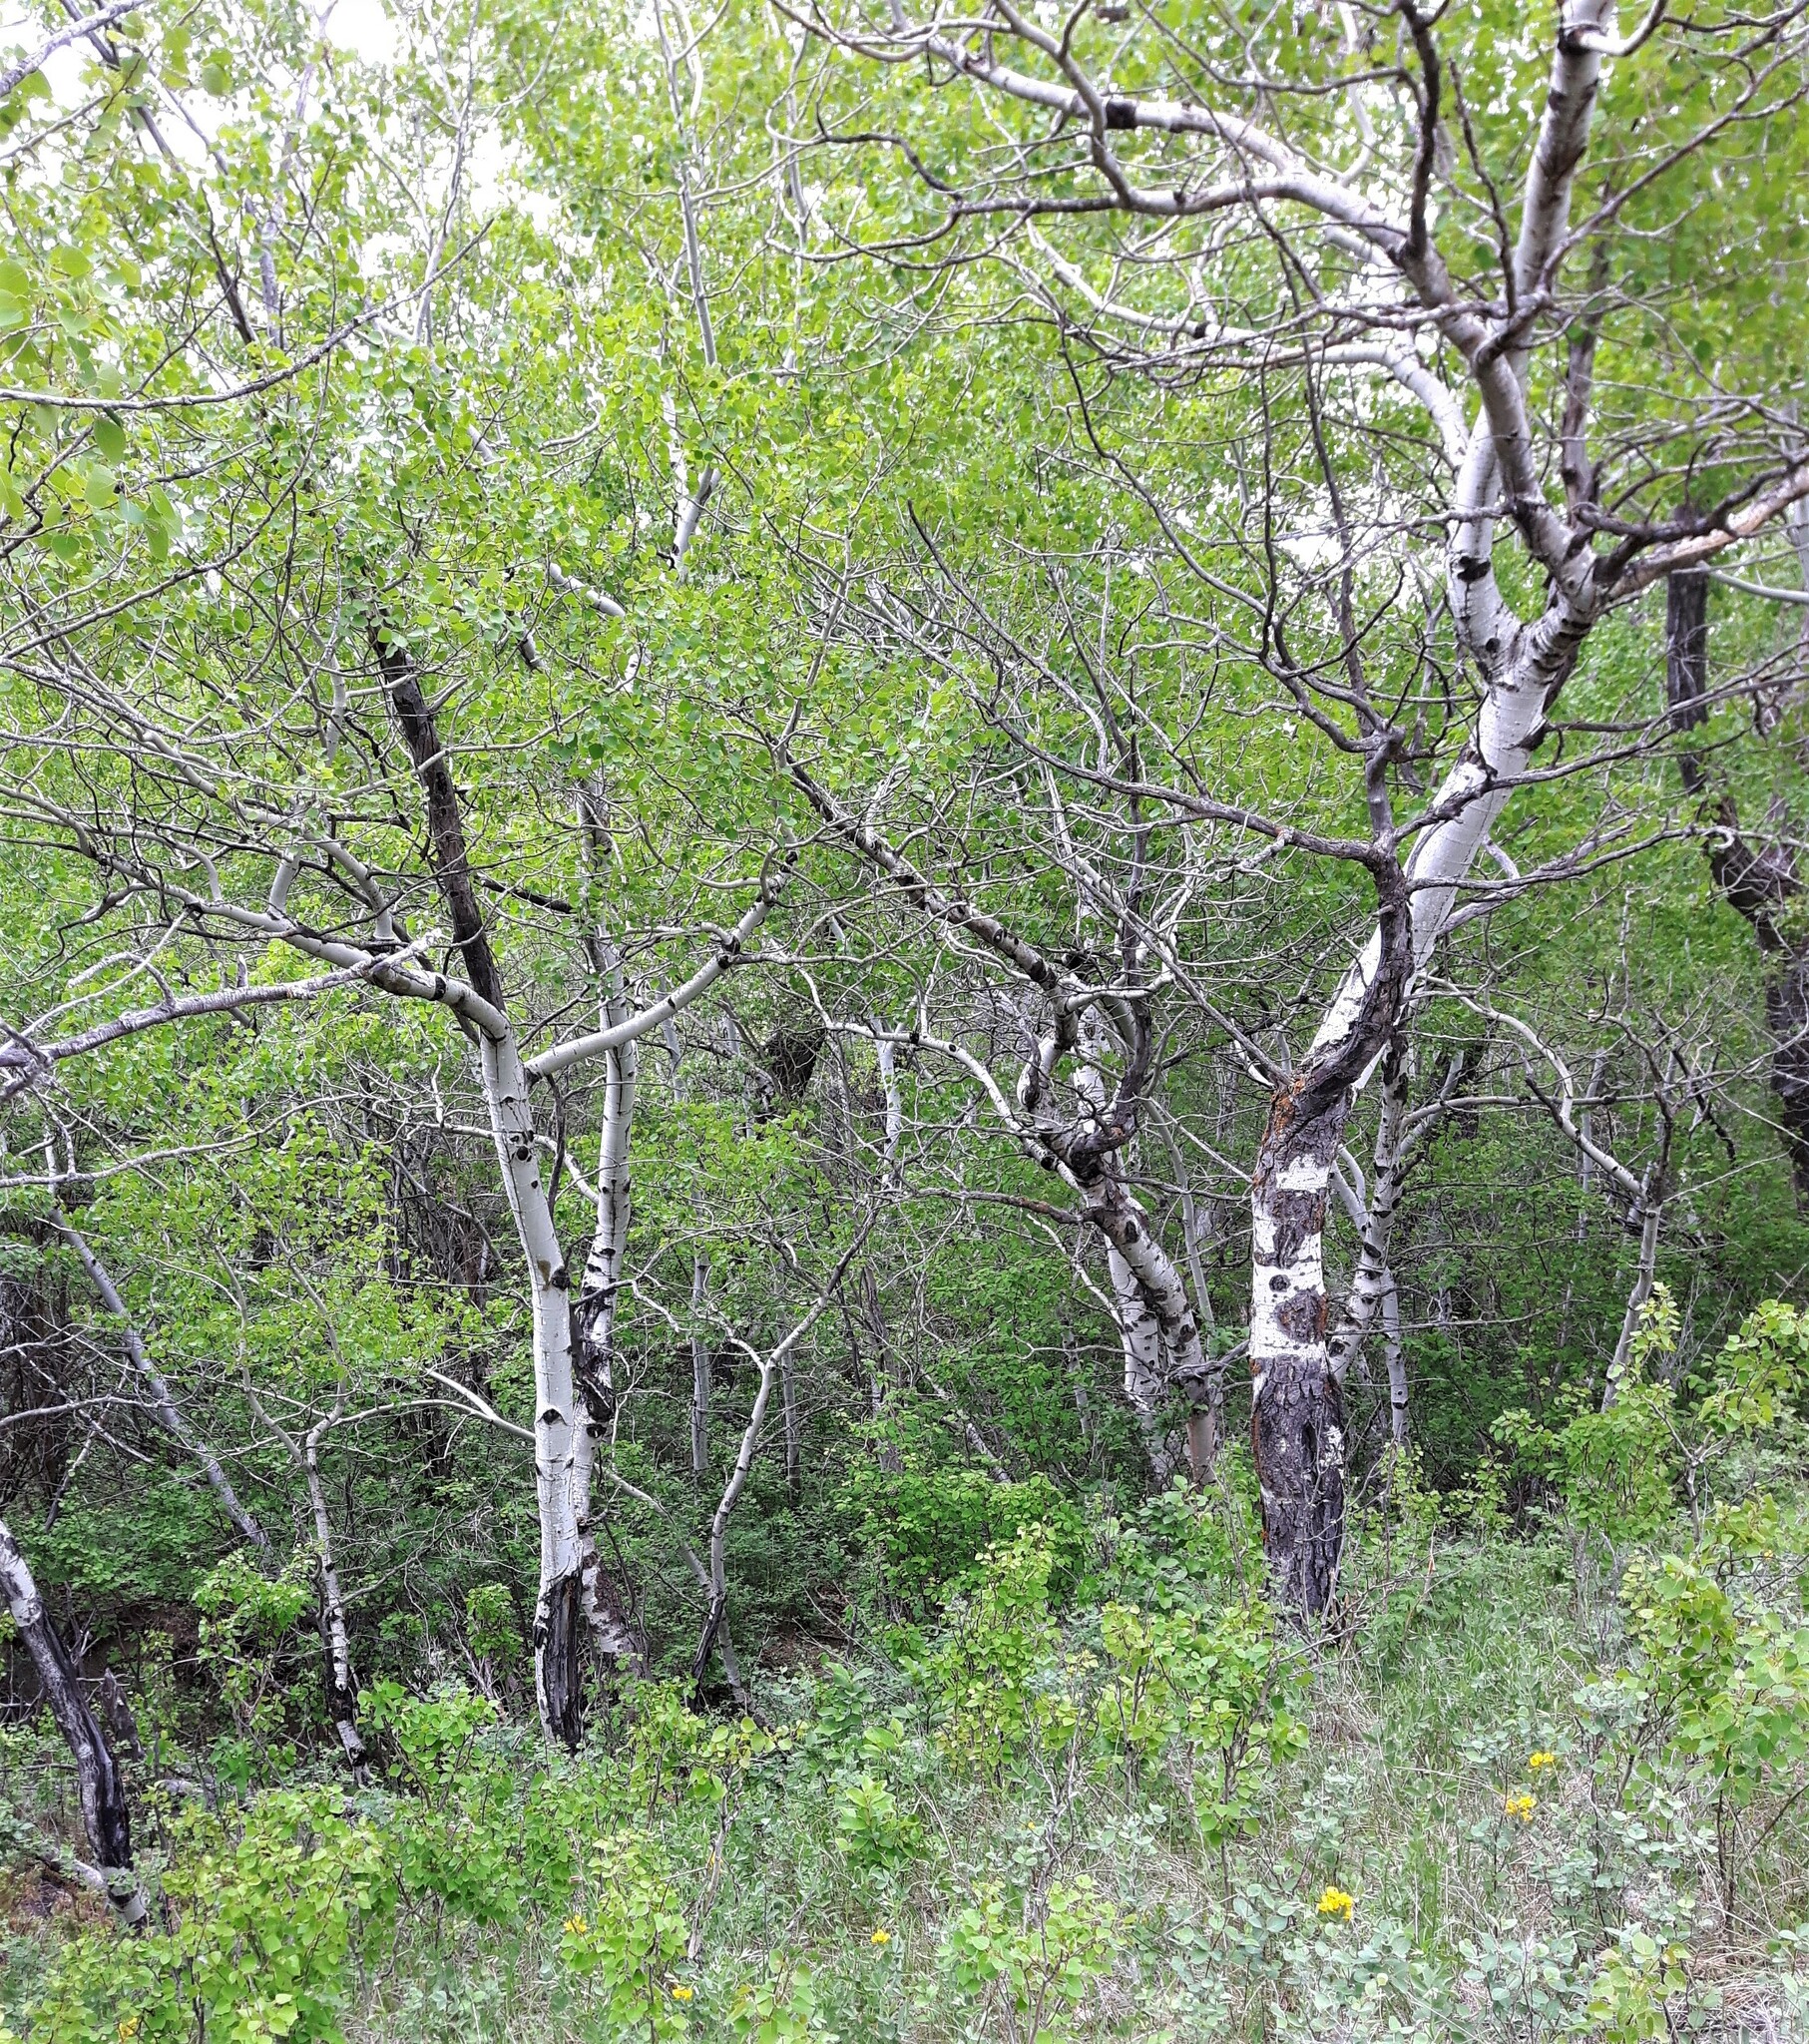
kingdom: Plantae
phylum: Tracheophyta
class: Magnoliopsida
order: Malpighiales
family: Salicaceae
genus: Populus
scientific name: Populus tremuloides
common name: Quaking aspen
